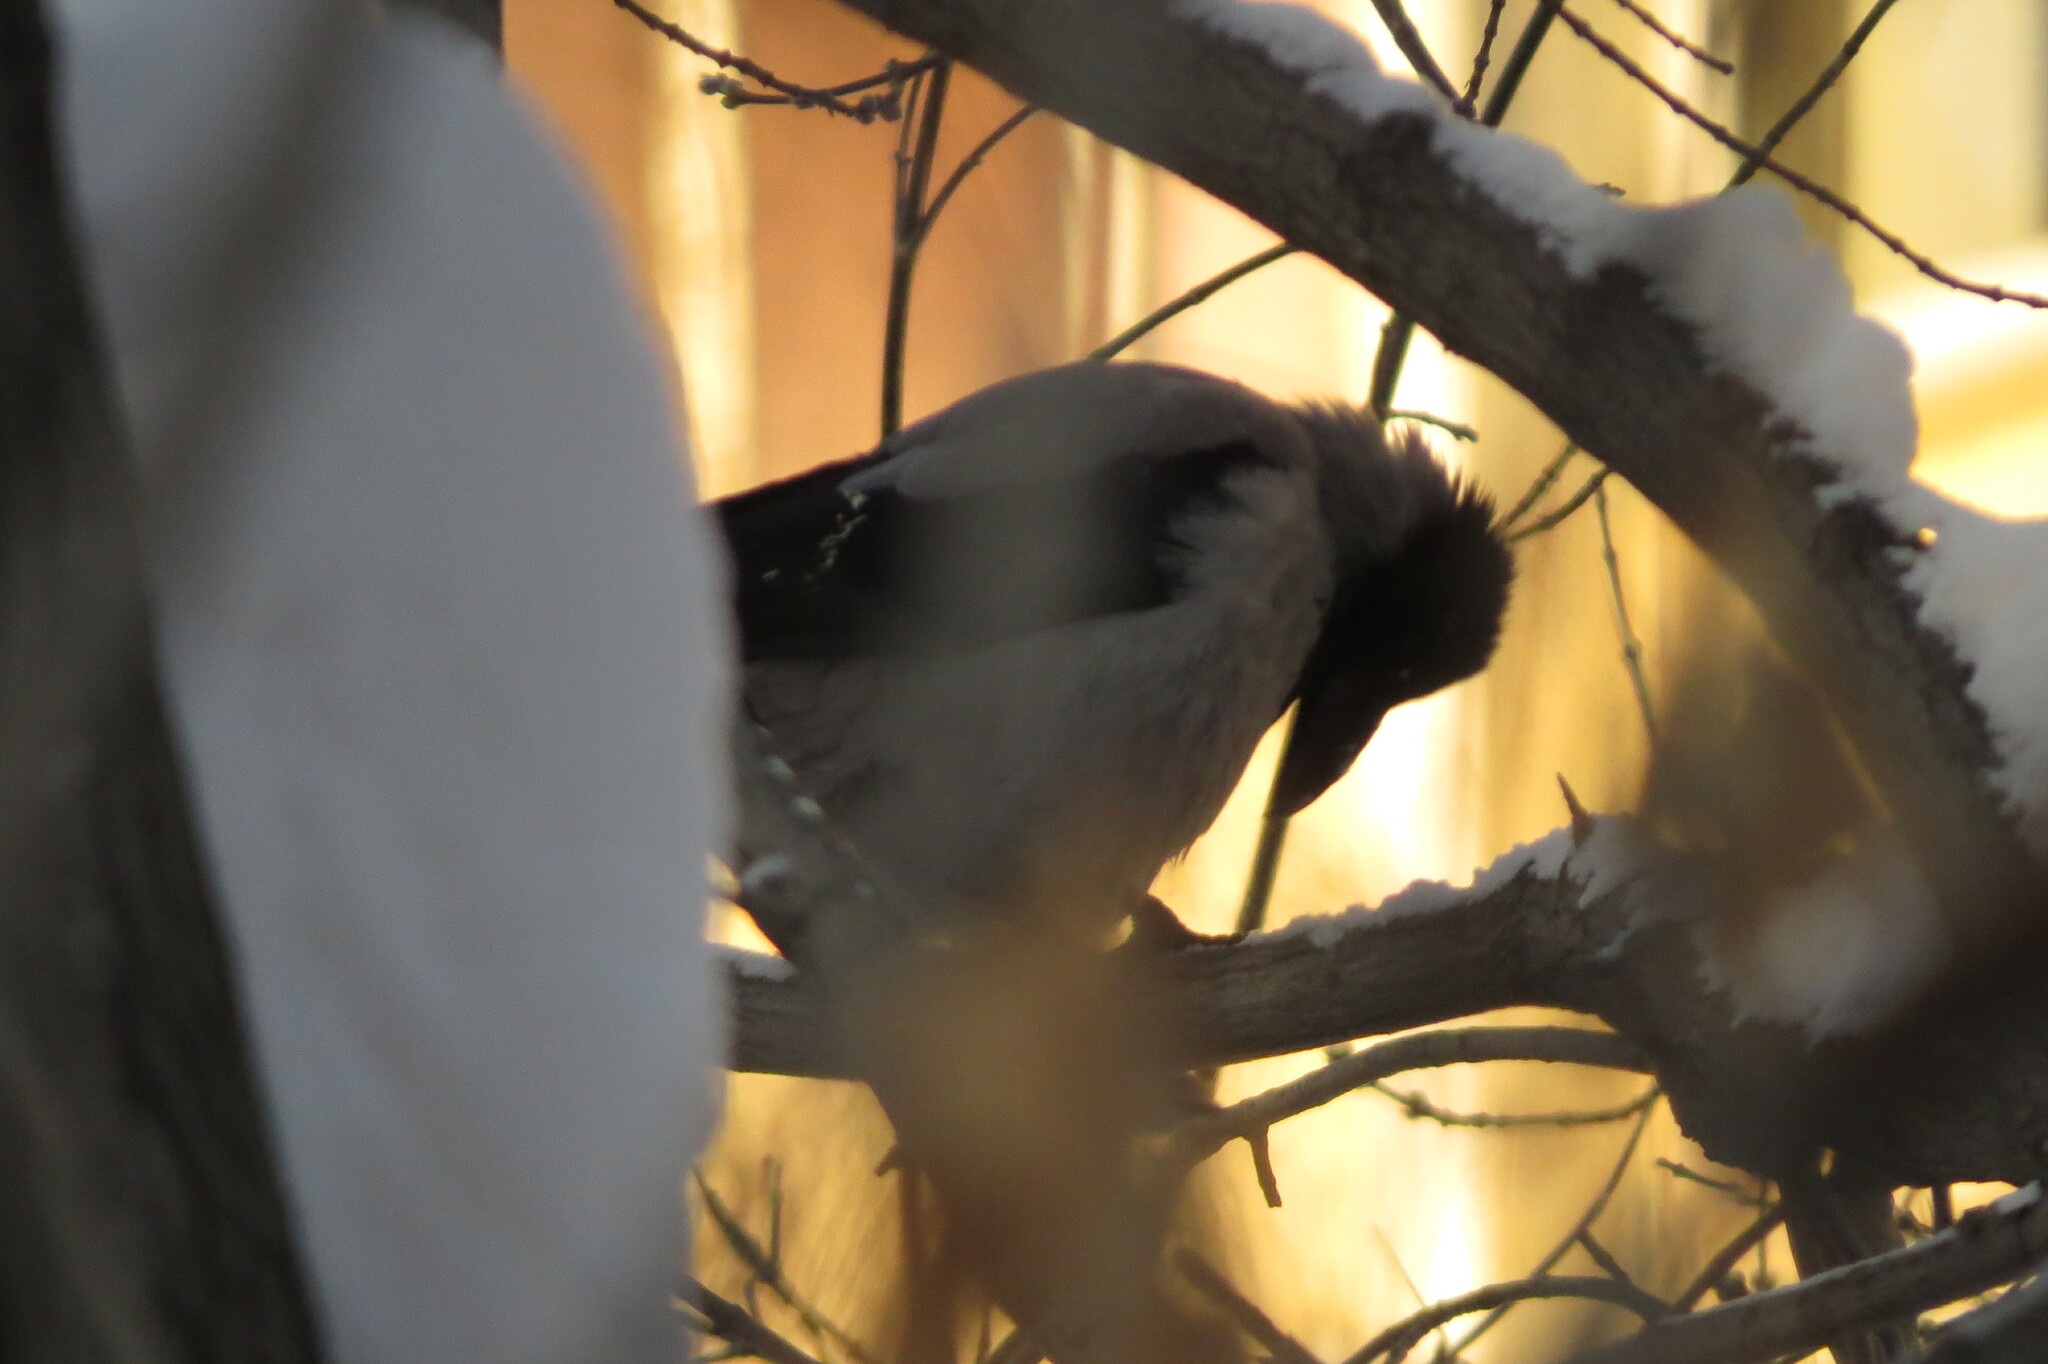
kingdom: Animalia
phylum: Chordata
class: Aves
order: Passeriformes
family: Corvidae
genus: Corvus
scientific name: Corvus cornix
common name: Hooded crow
